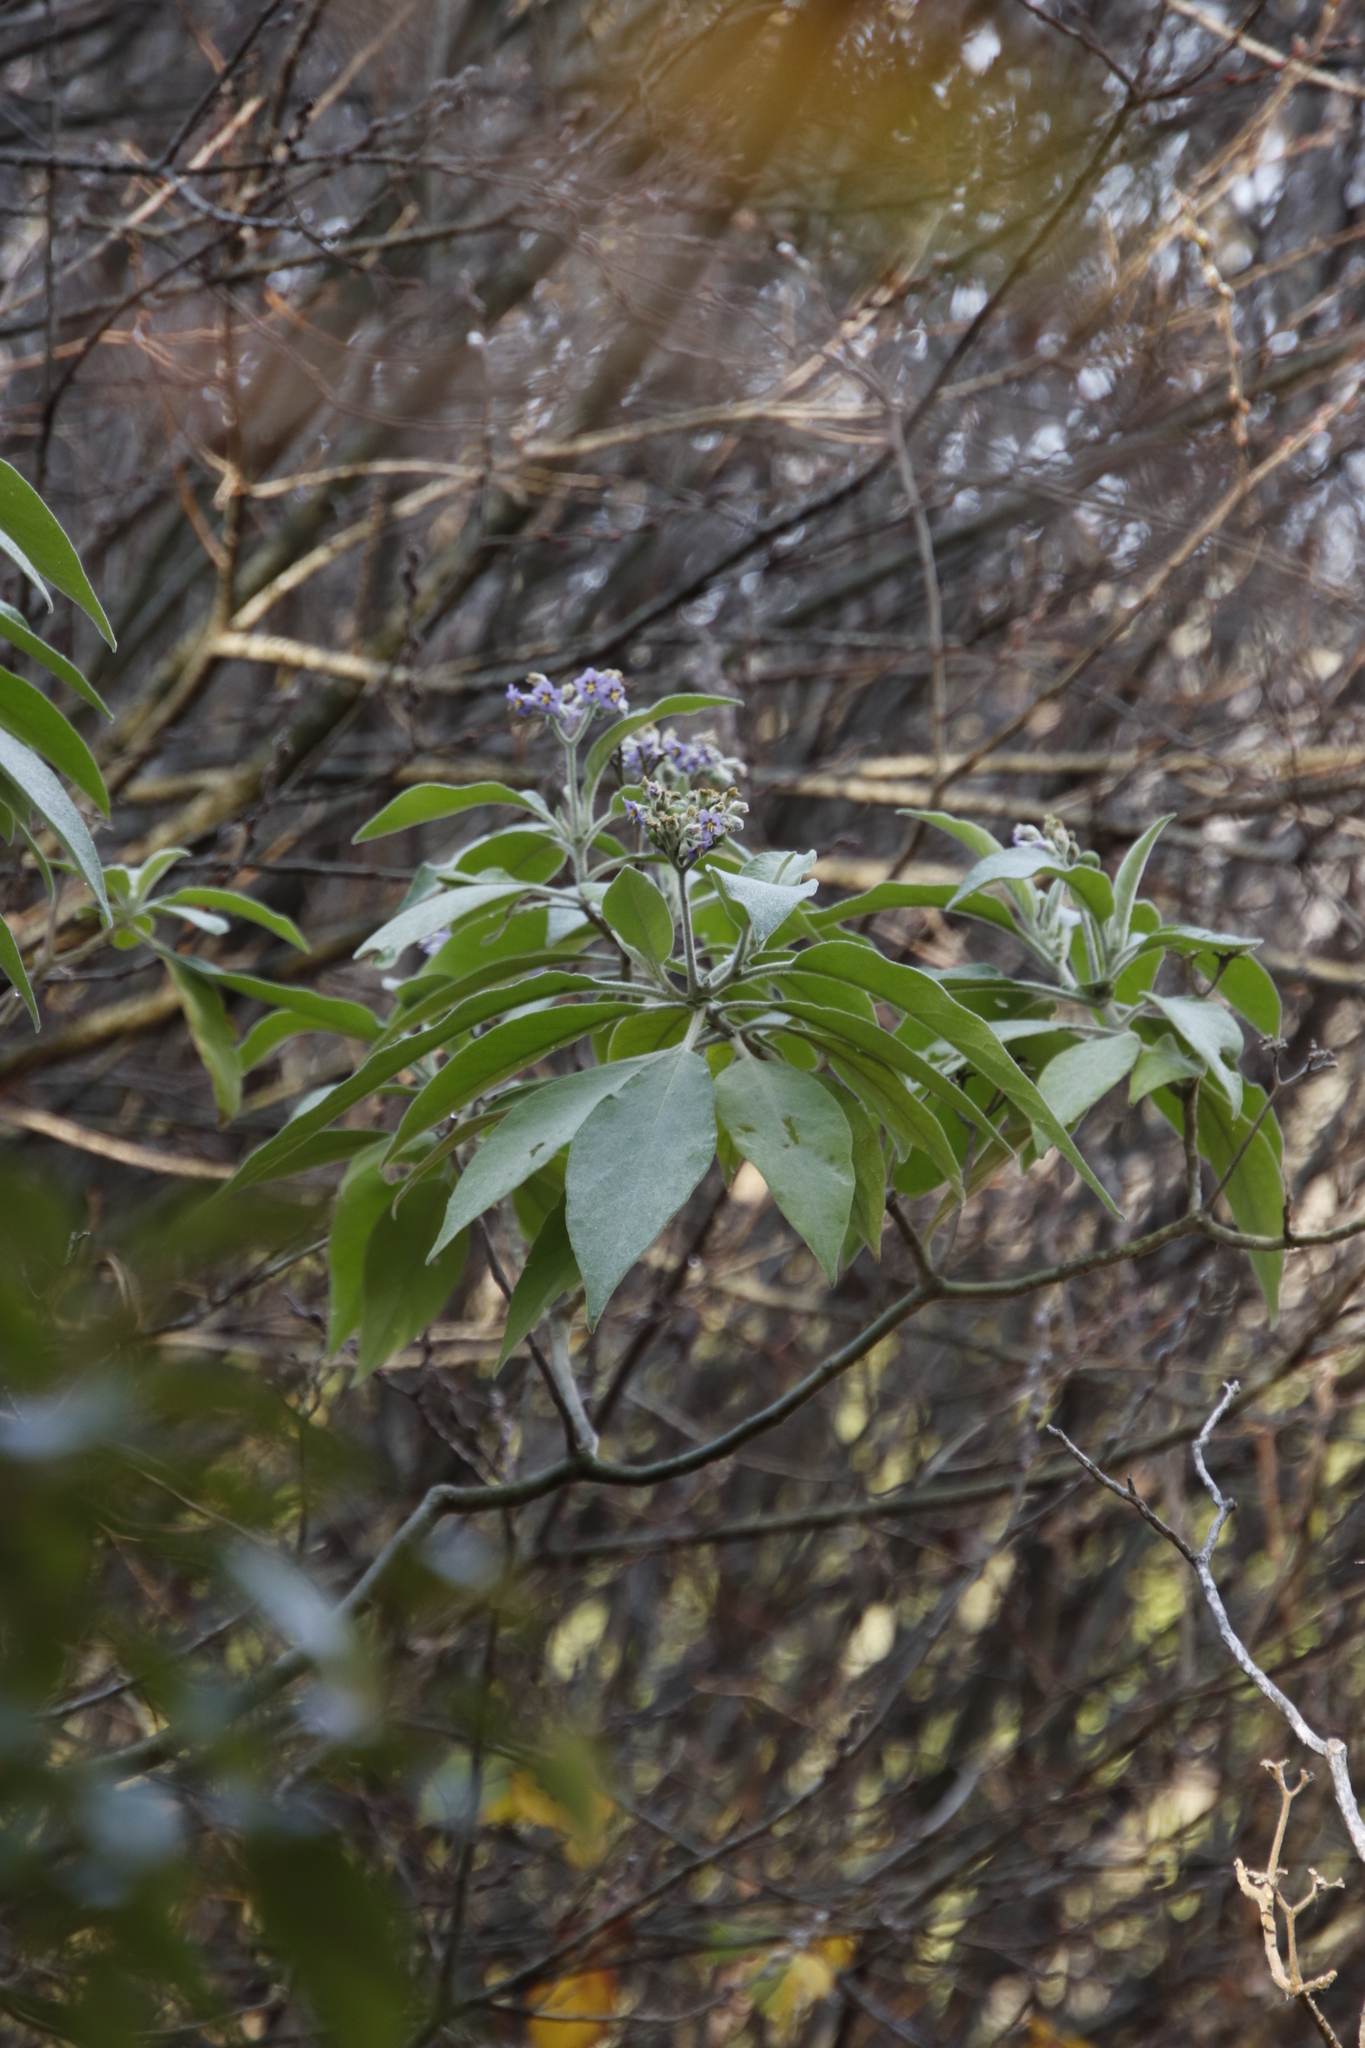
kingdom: Plantae
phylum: Tracheophyta
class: Magnoliopsida
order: Solanales
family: Solanaceae
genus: Solanum
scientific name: Solanum mauritianum
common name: Earleaf nightshade
